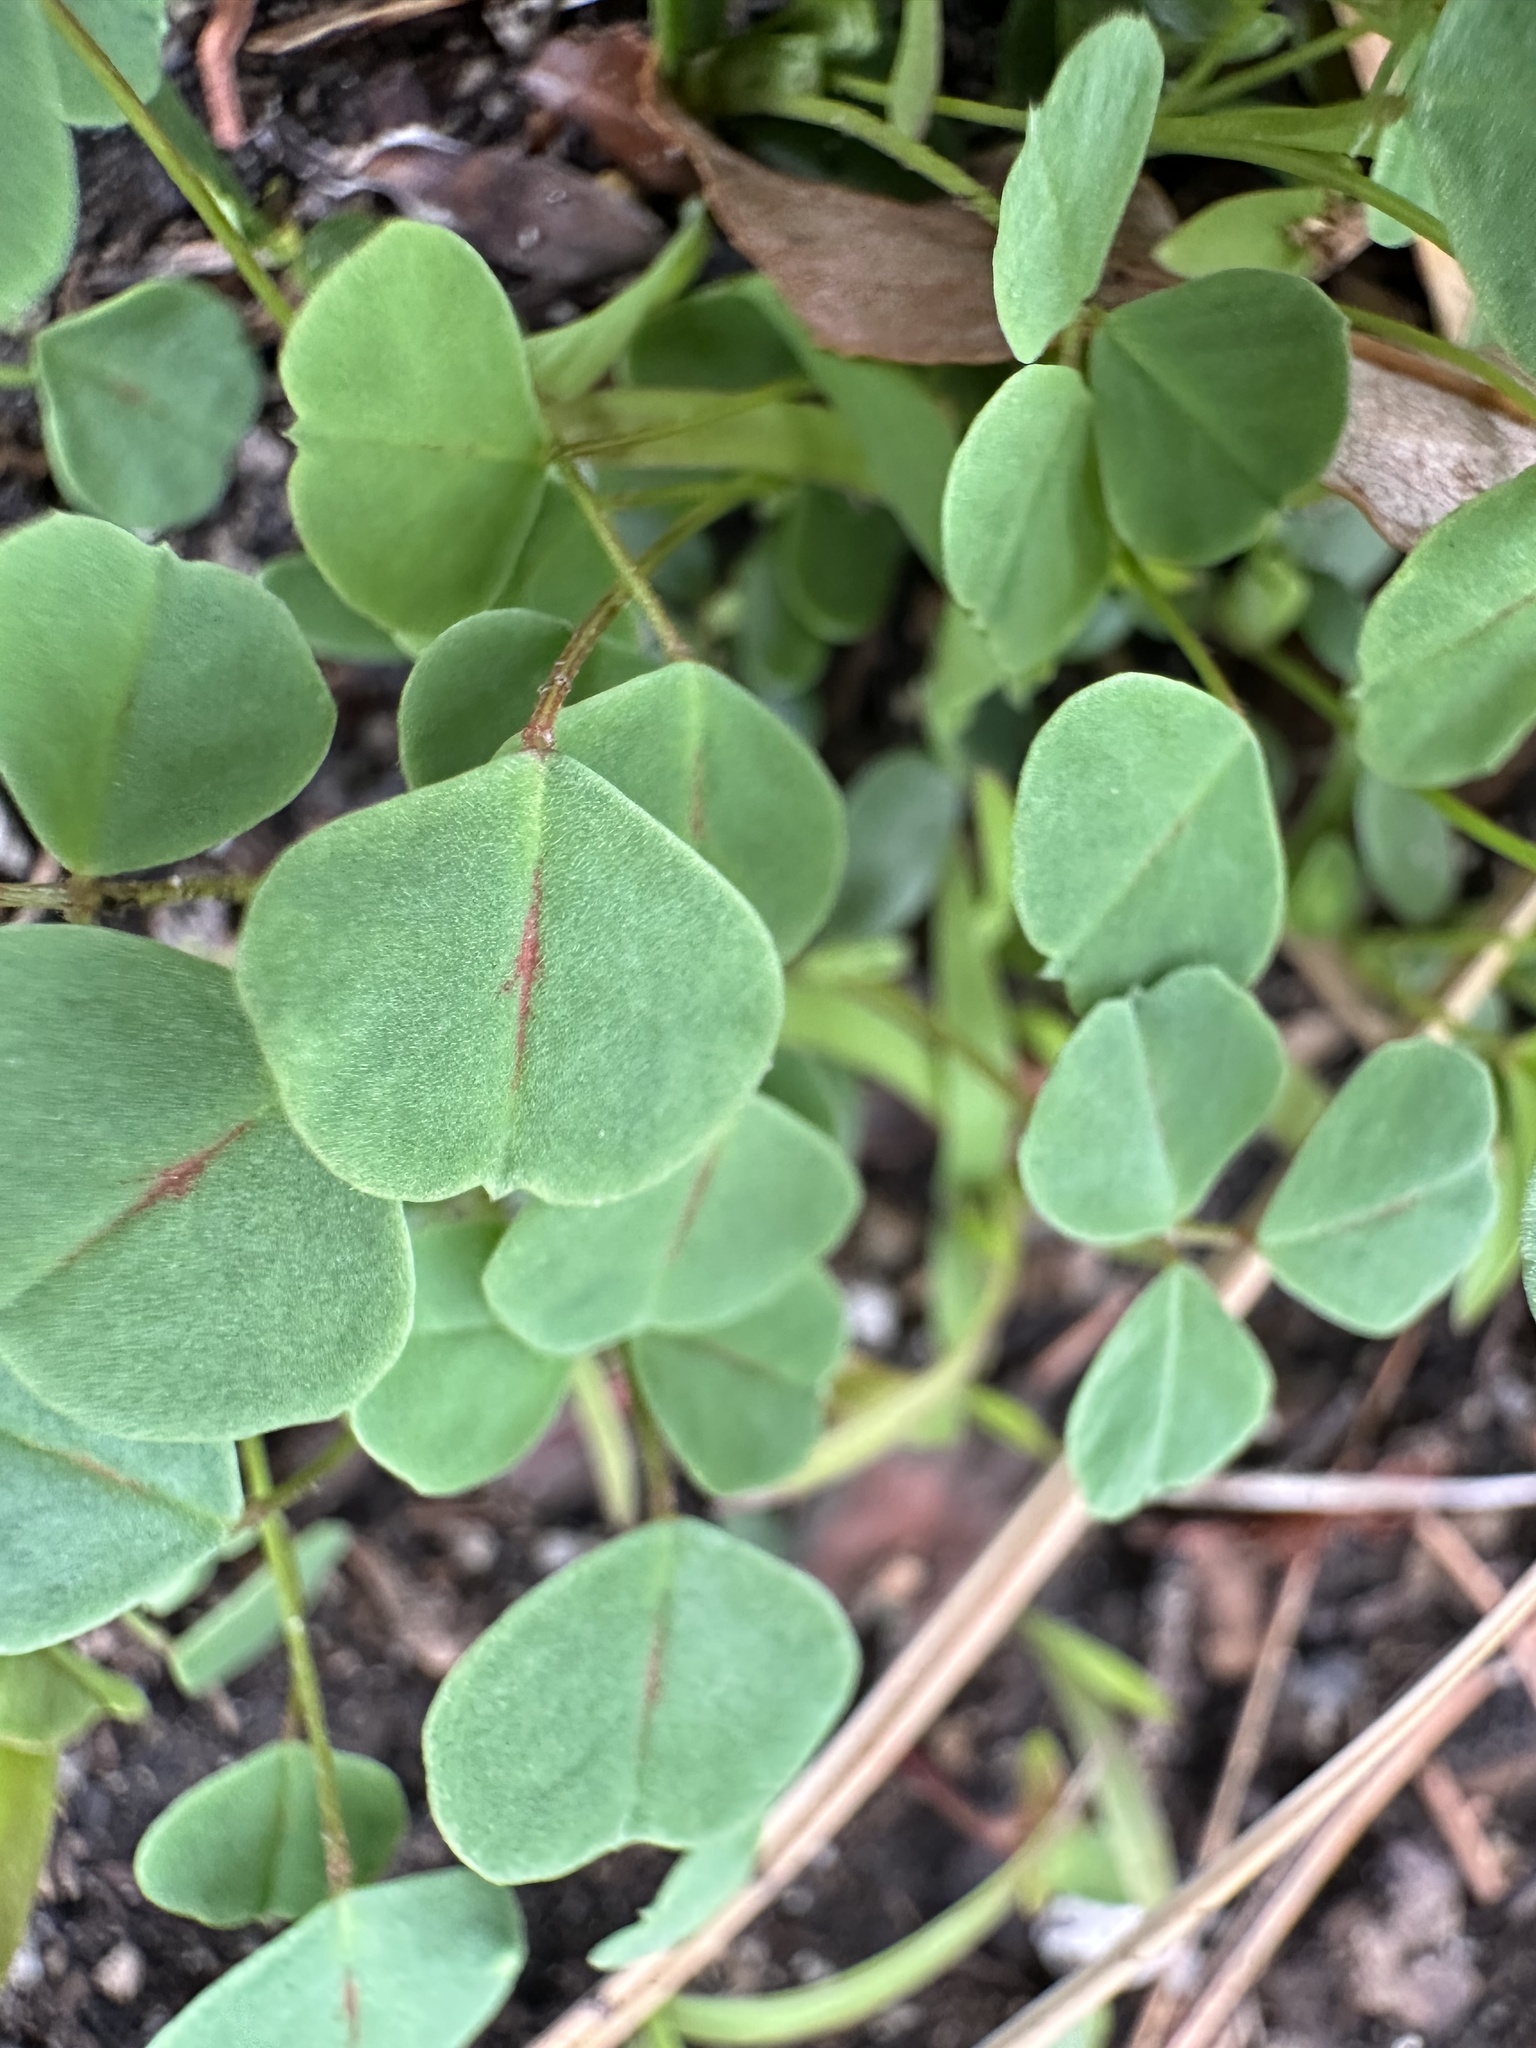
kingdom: Plantae
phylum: Tracheophyta
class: Magnoliopsida
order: Fabales
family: Fabaceae
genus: Medicago
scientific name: Medicago polymorpha
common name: Burclover
